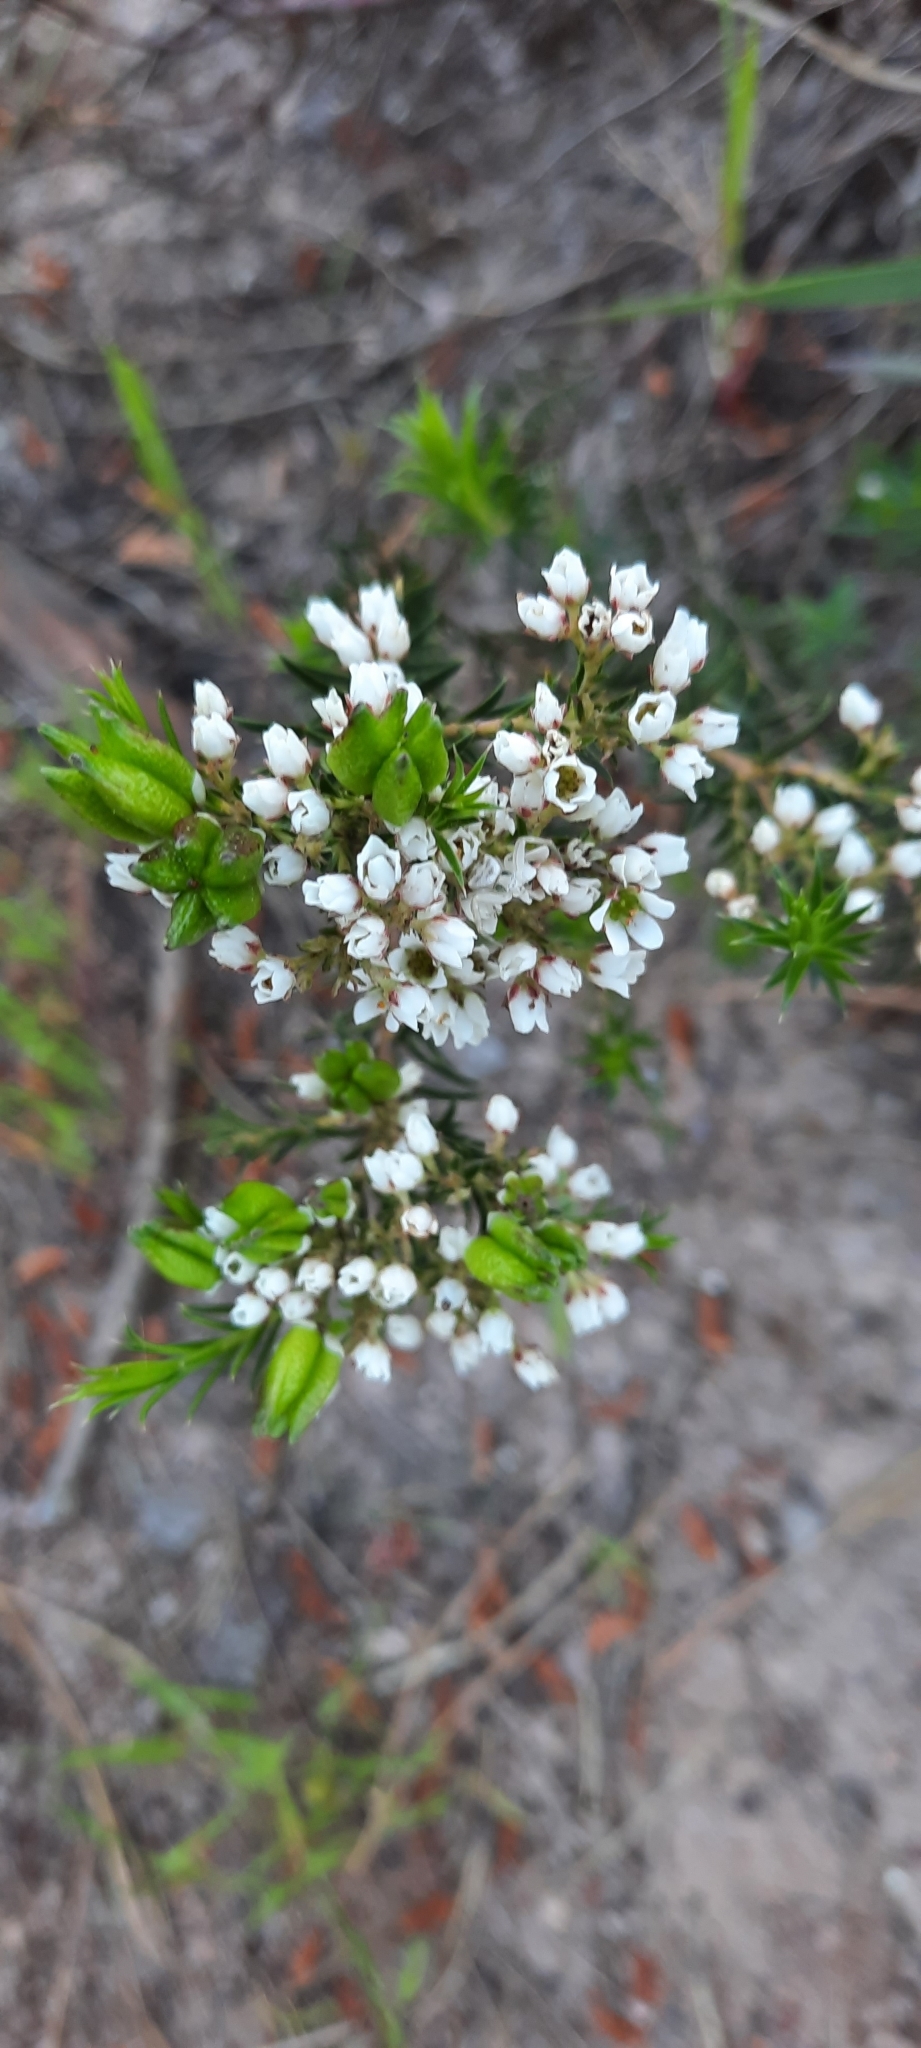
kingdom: Plantae
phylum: Tracheophyta
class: Magnoliopsida
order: Sapindales
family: Rutaceae
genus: Diosma
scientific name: Diosma hirsuta
